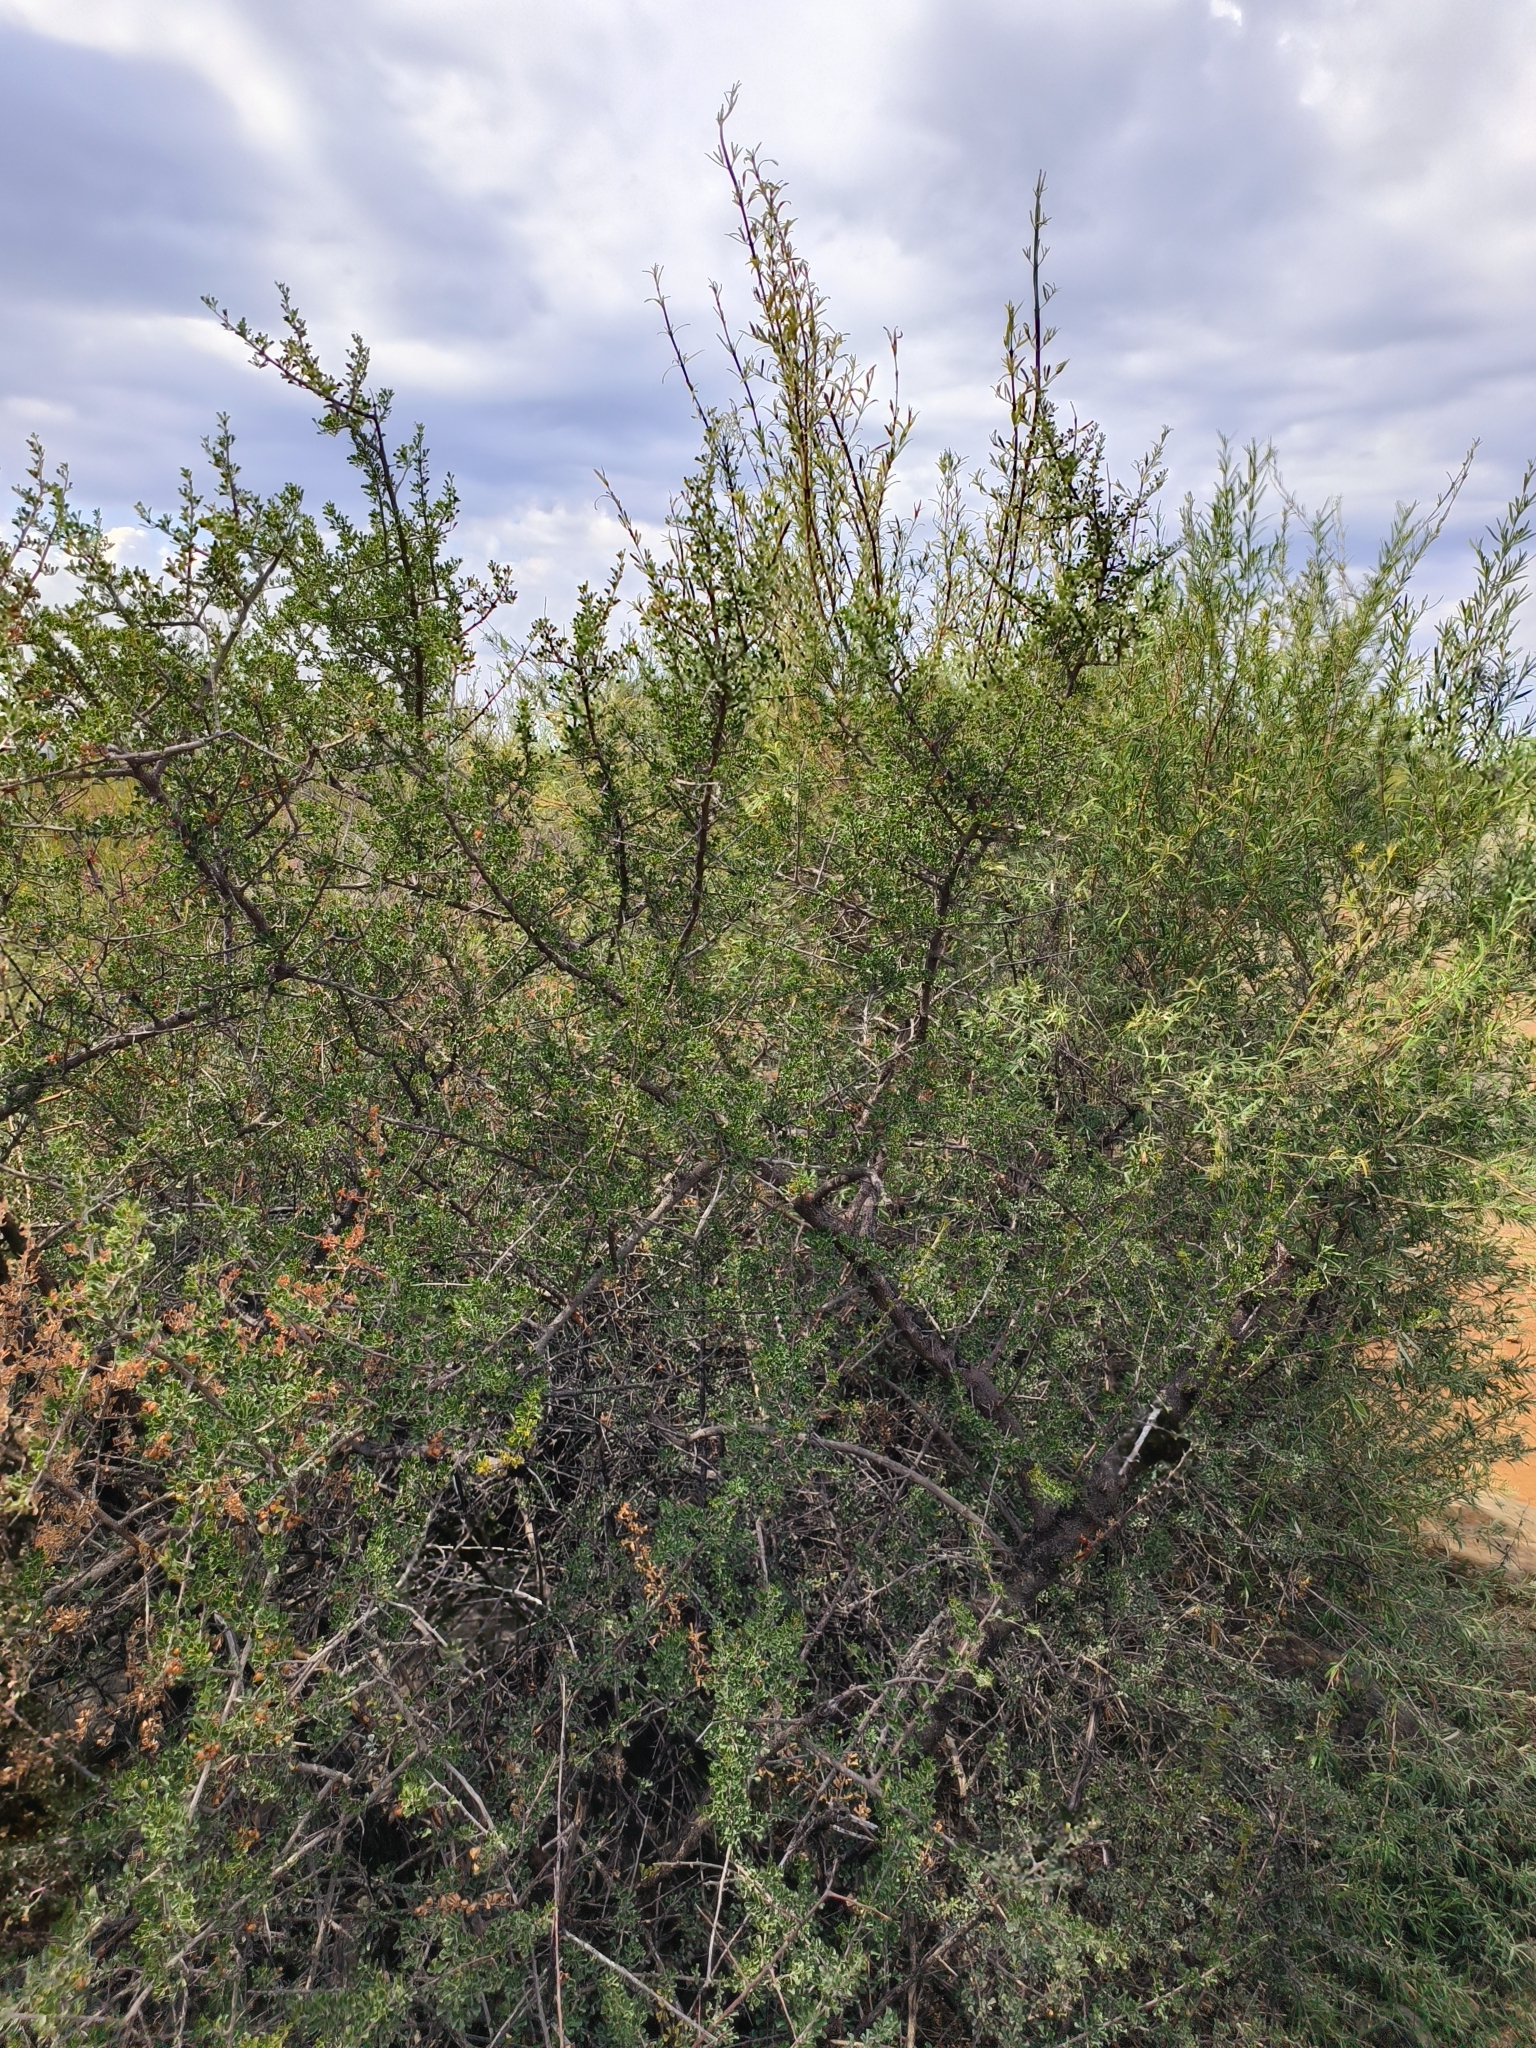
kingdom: Plantae
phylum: Tracheophyta
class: Magnoliopsida
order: Sapindales
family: Anacardiaceae
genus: Searsia
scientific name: Searsia burchellii
